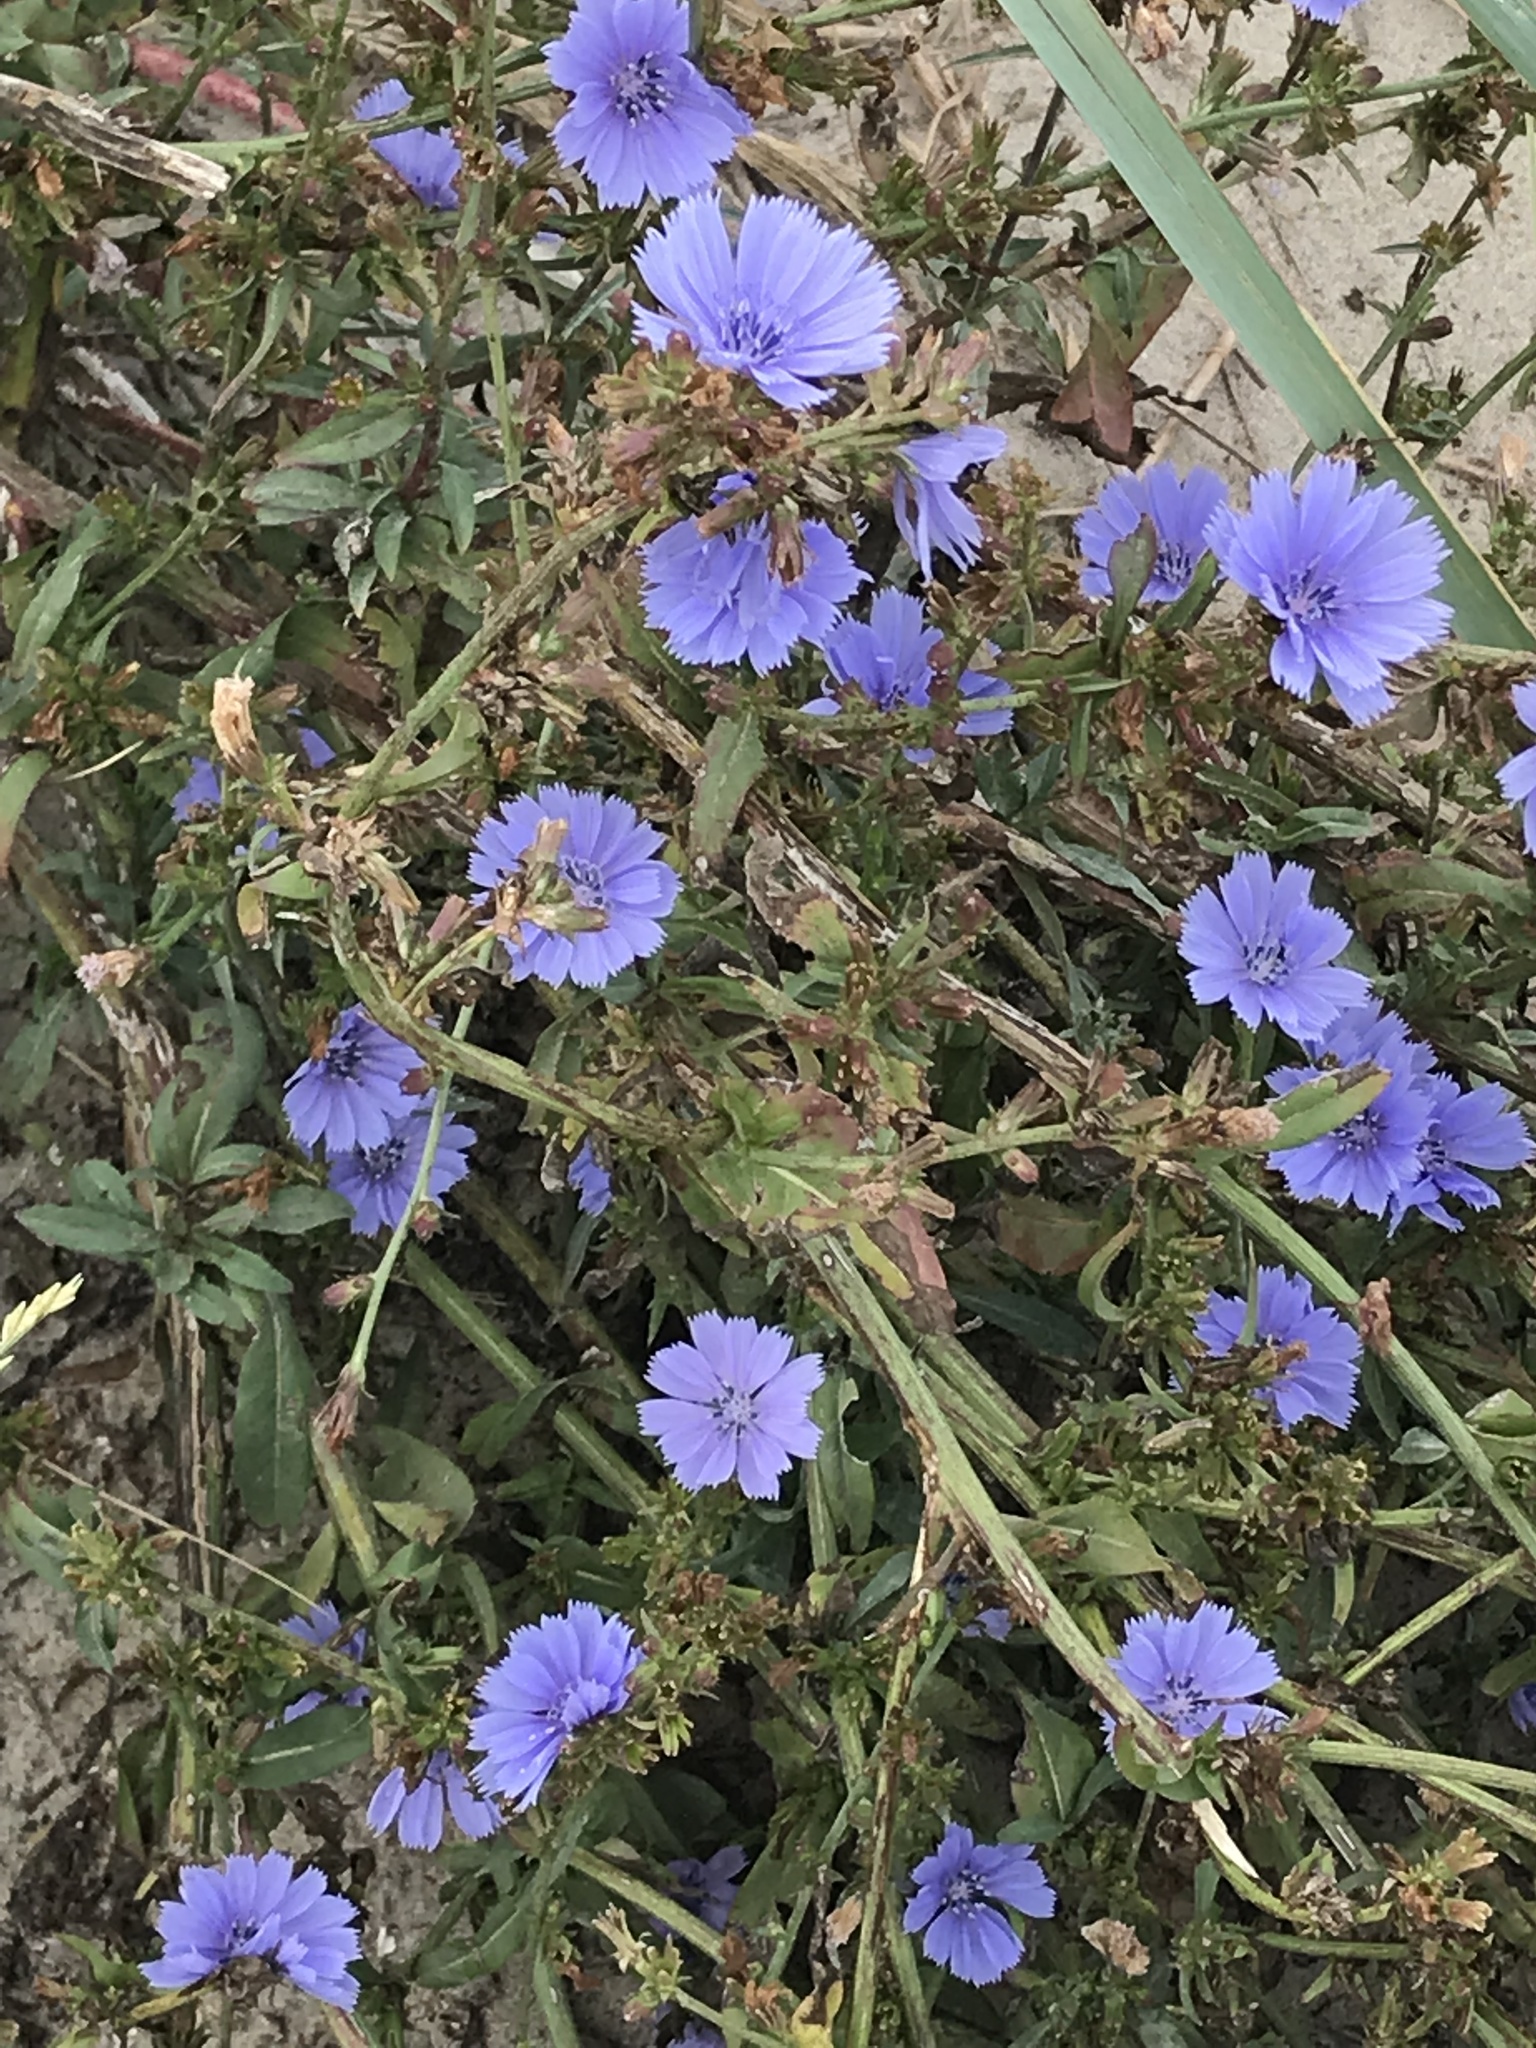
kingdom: Plantae
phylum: Tracheophyta
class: Magnoliopsida
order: Asterales
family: Asteraceae
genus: Cichorium
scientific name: Cichorium intybus
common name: Chicory
